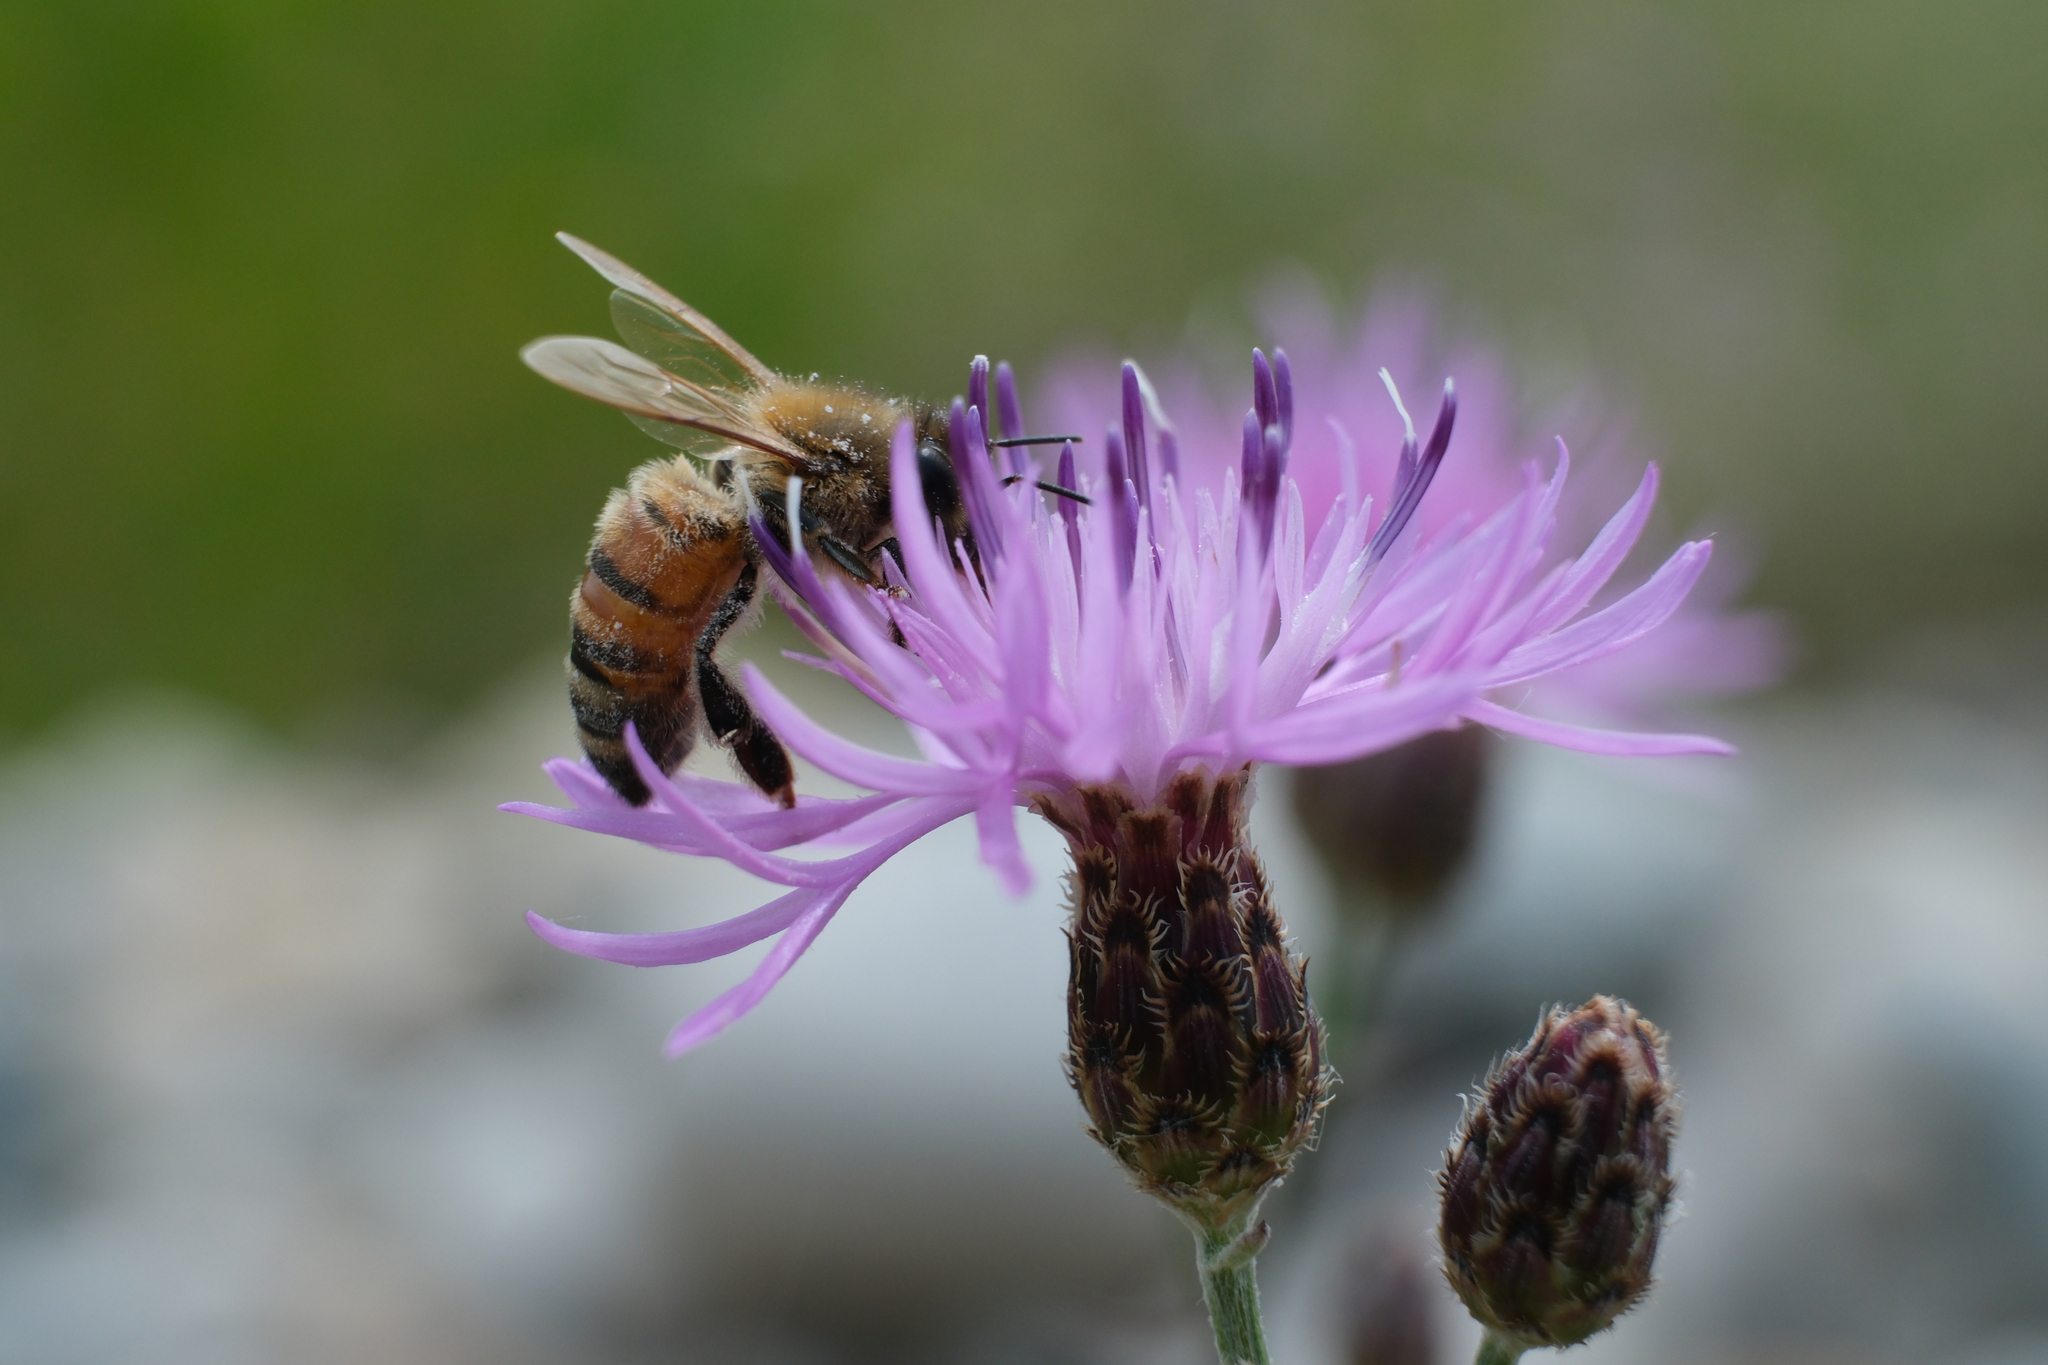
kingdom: Animalia
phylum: Arthropoda
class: Insecta
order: Hymenoptera
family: Apidae
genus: Apis
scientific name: Apis mellifera
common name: Honey bee
